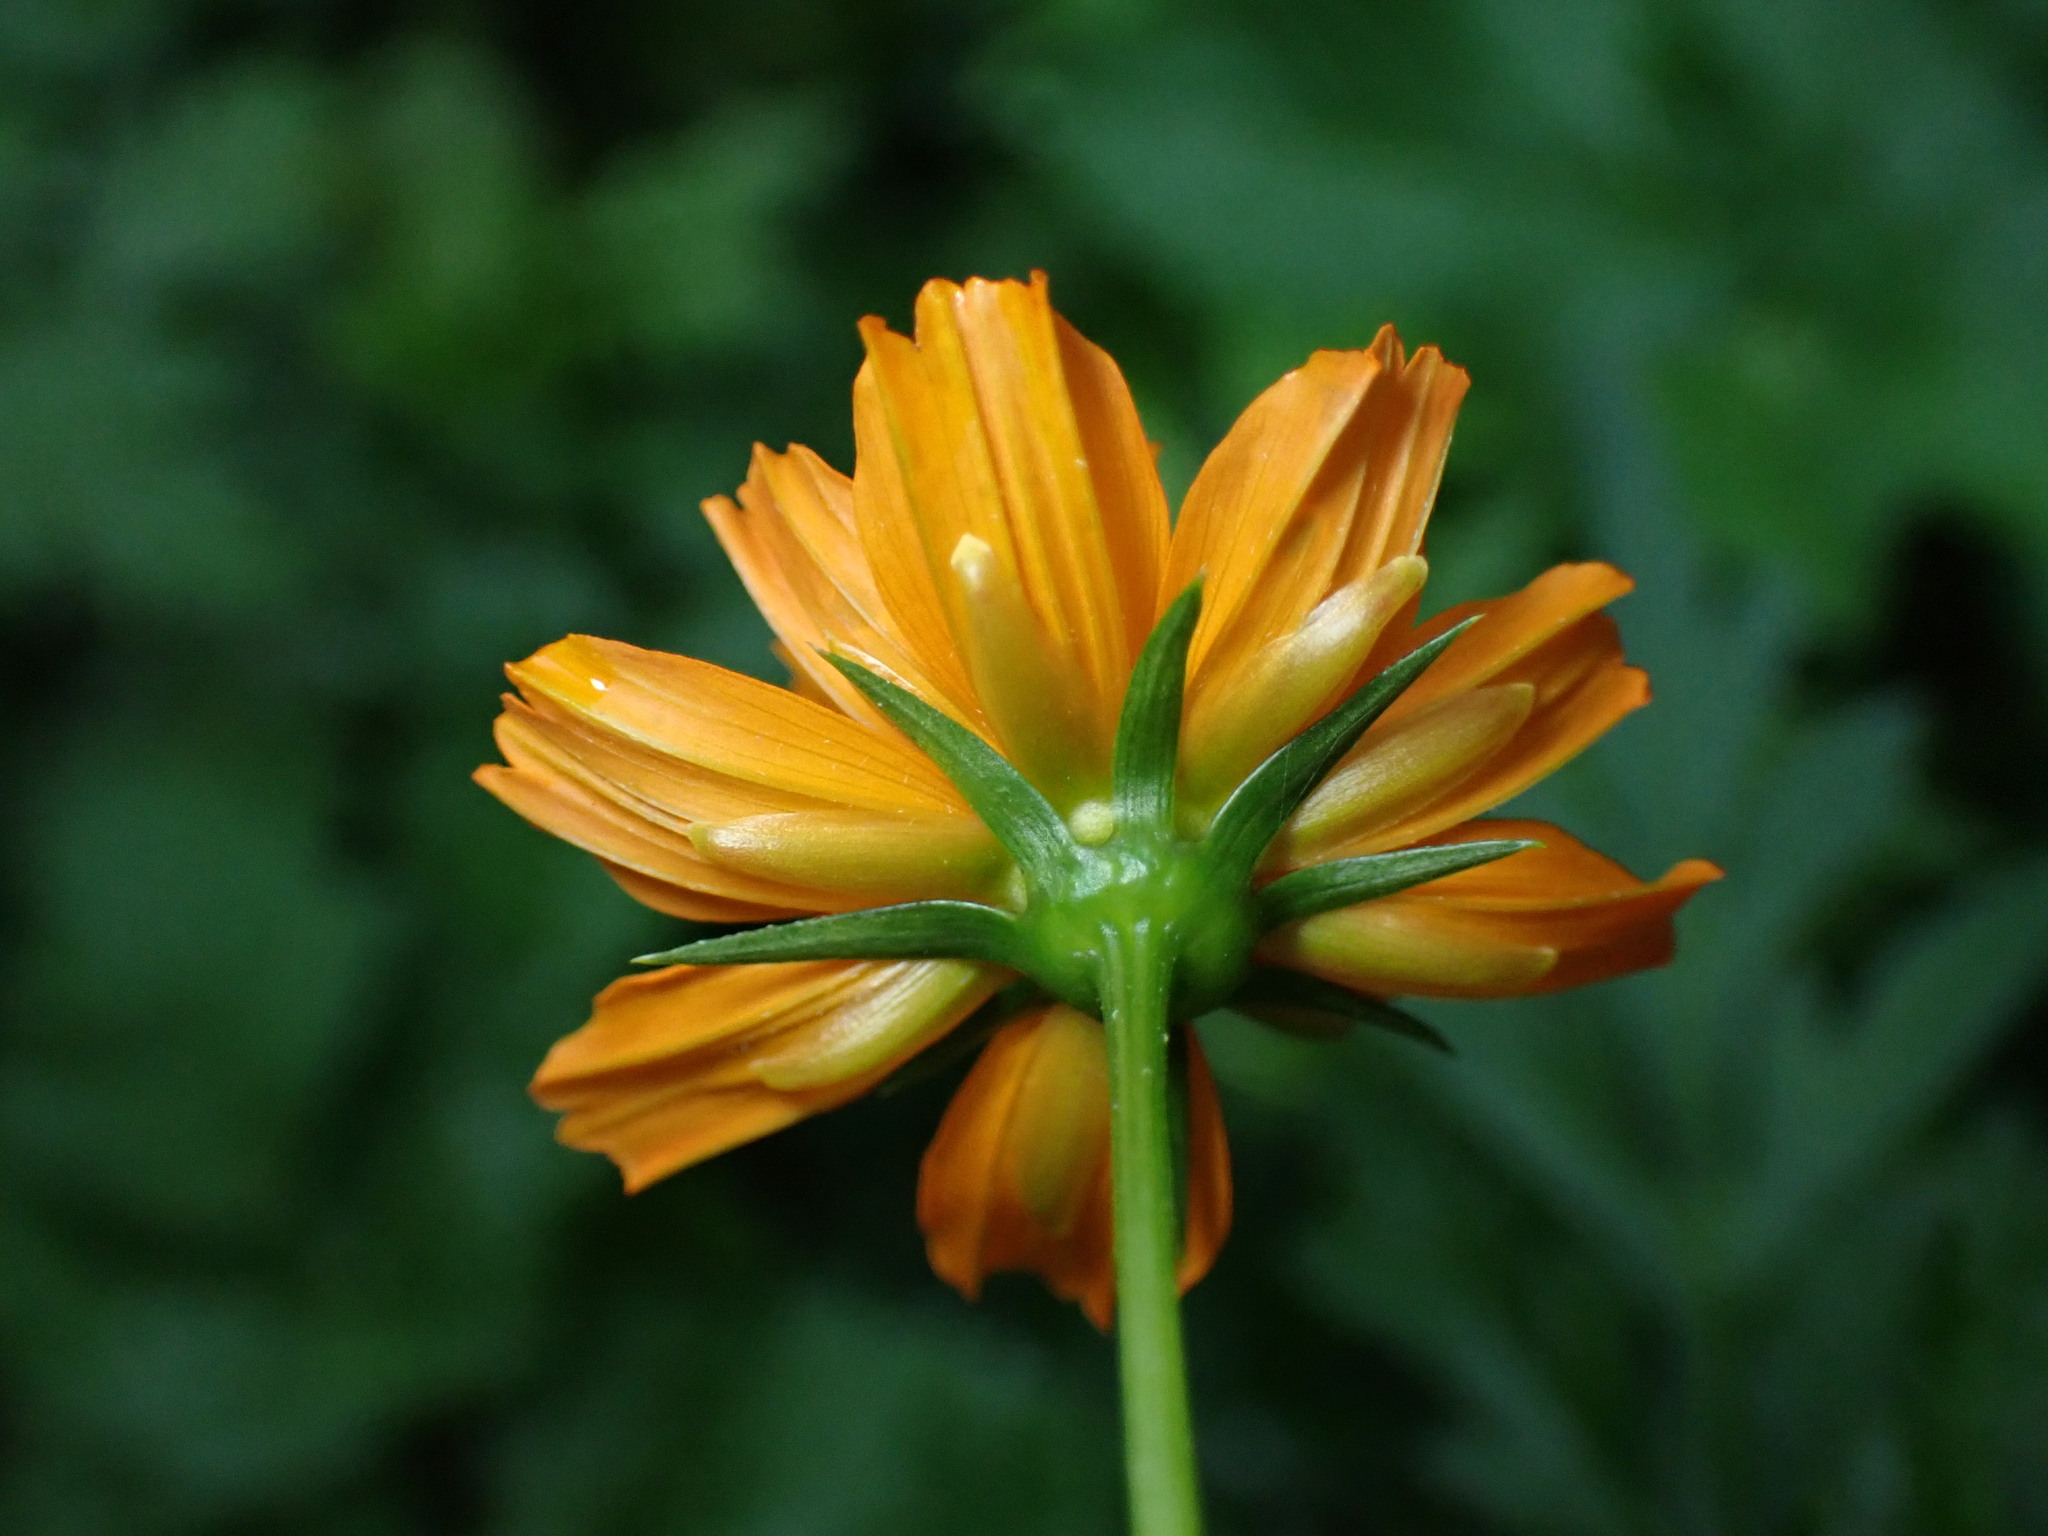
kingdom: Plantae
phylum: Tracheophyta
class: Magnoliopsida
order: Asterales
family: Asteraceae
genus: Cosmos
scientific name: Cosmos sulphureus
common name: Sulphur cosmos
